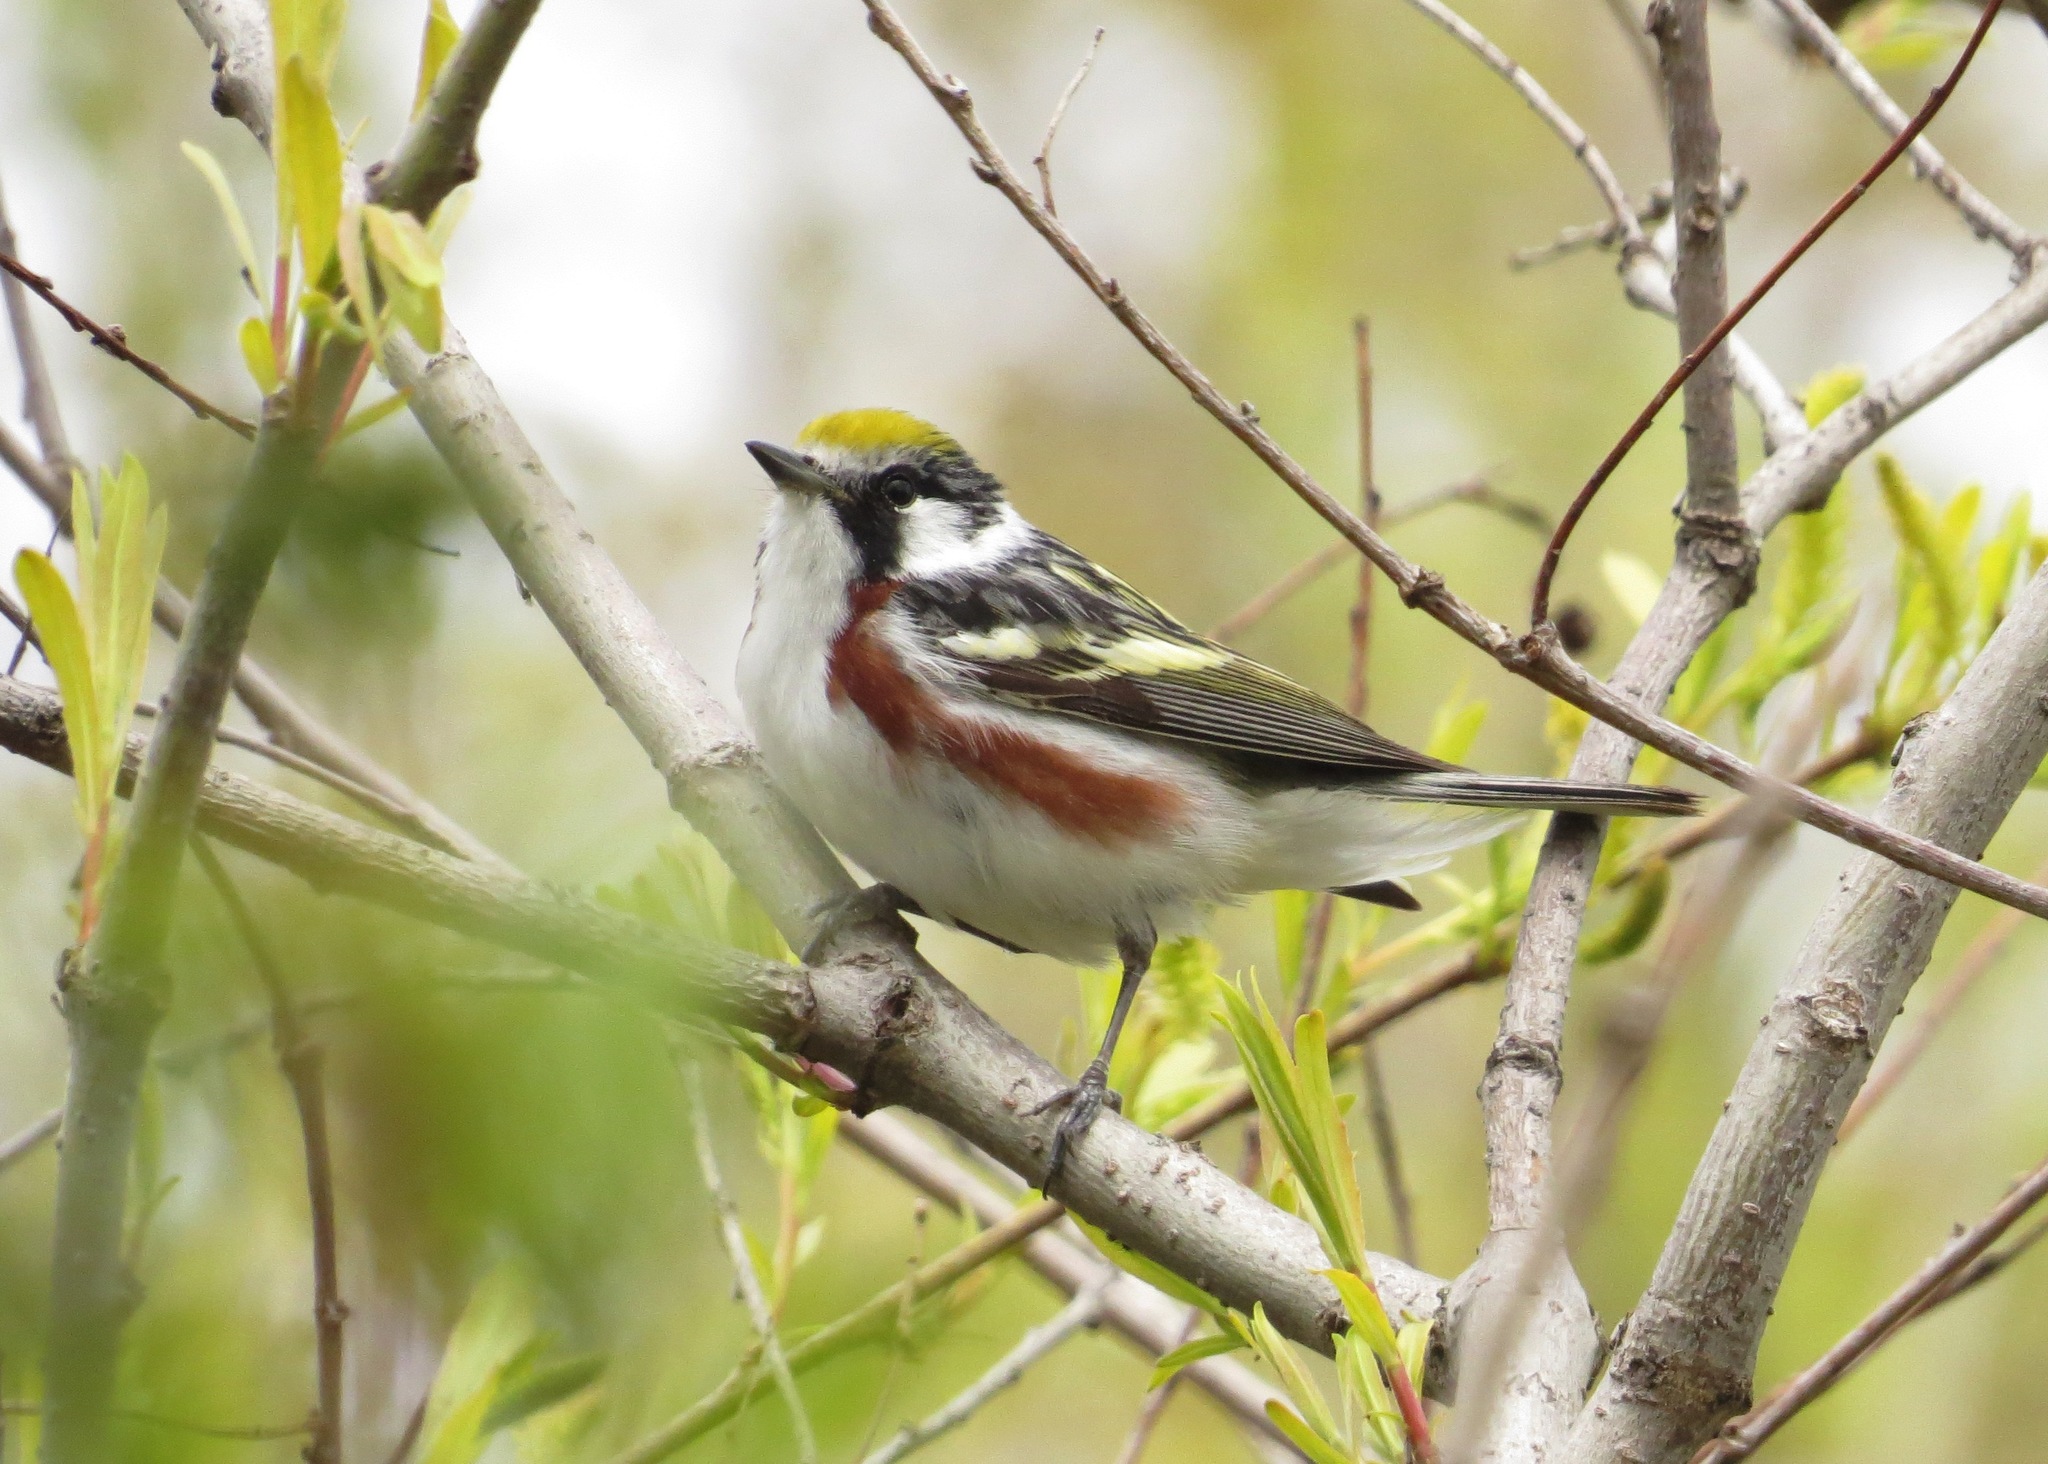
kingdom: Animalia
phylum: Chordata
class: Aves
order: Passeriformes
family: Parulidae
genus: Setophaga
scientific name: Setophaga pensylvanica
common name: Chestnut-sided warbler
